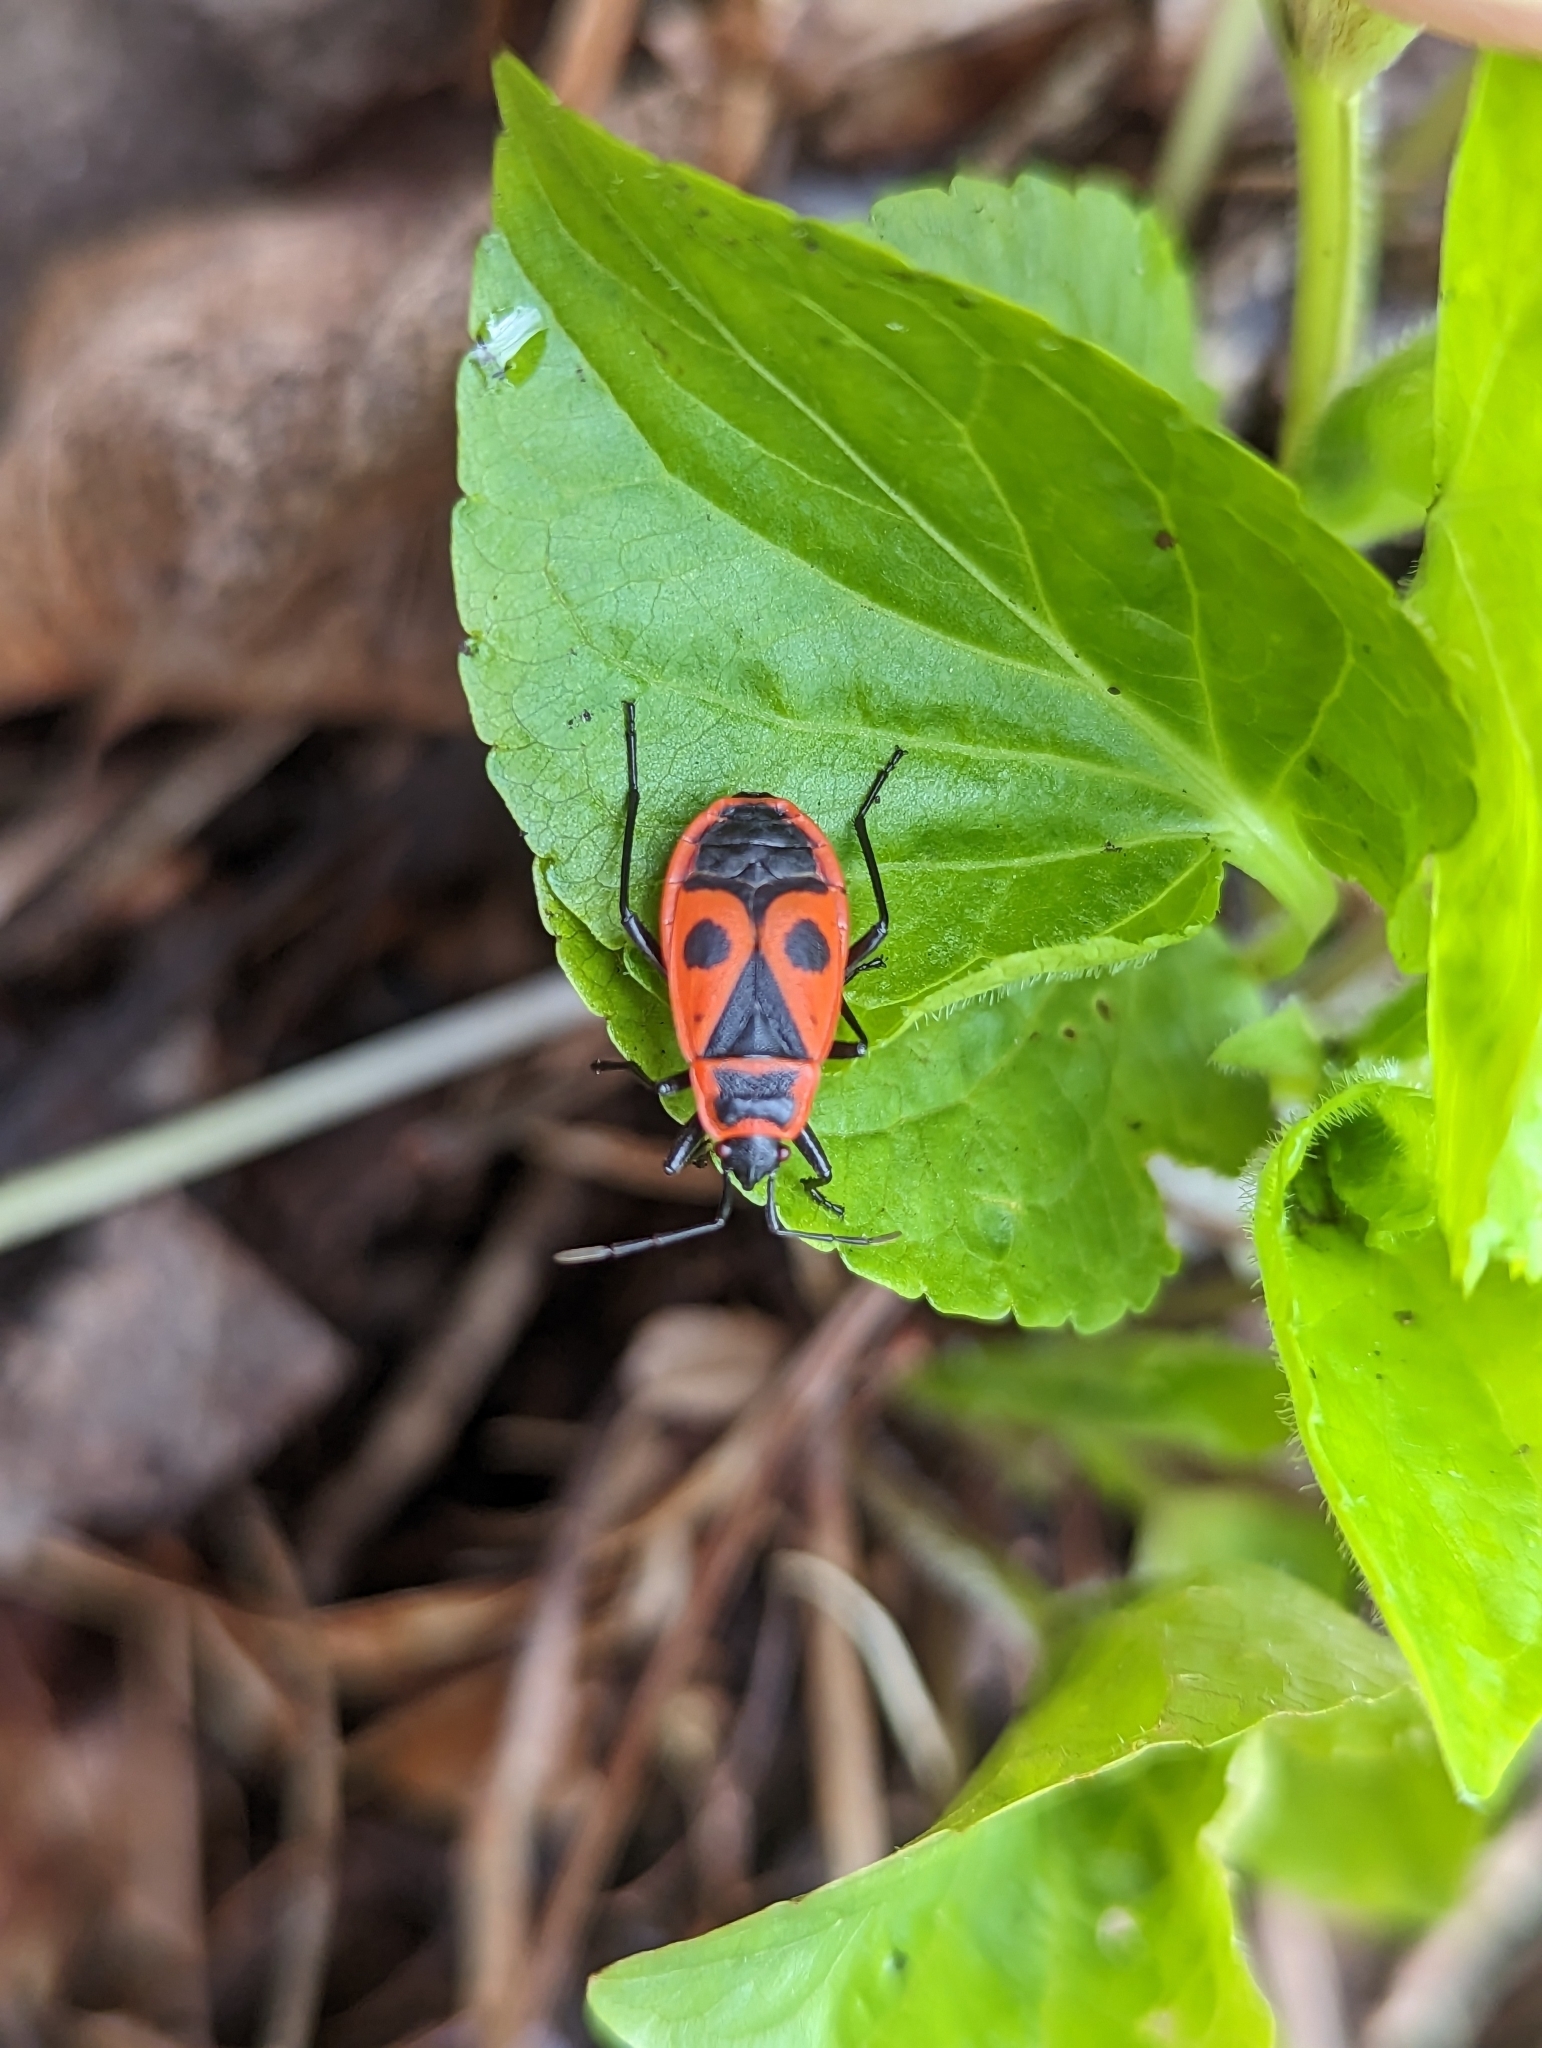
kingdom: Animalia
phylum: Arthropoda
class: Insecta
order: Hemiptera
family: Pyrrhocoridae
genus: Pyrrhocoris
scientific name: Pyrrhocoris apterus
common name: Firebug
